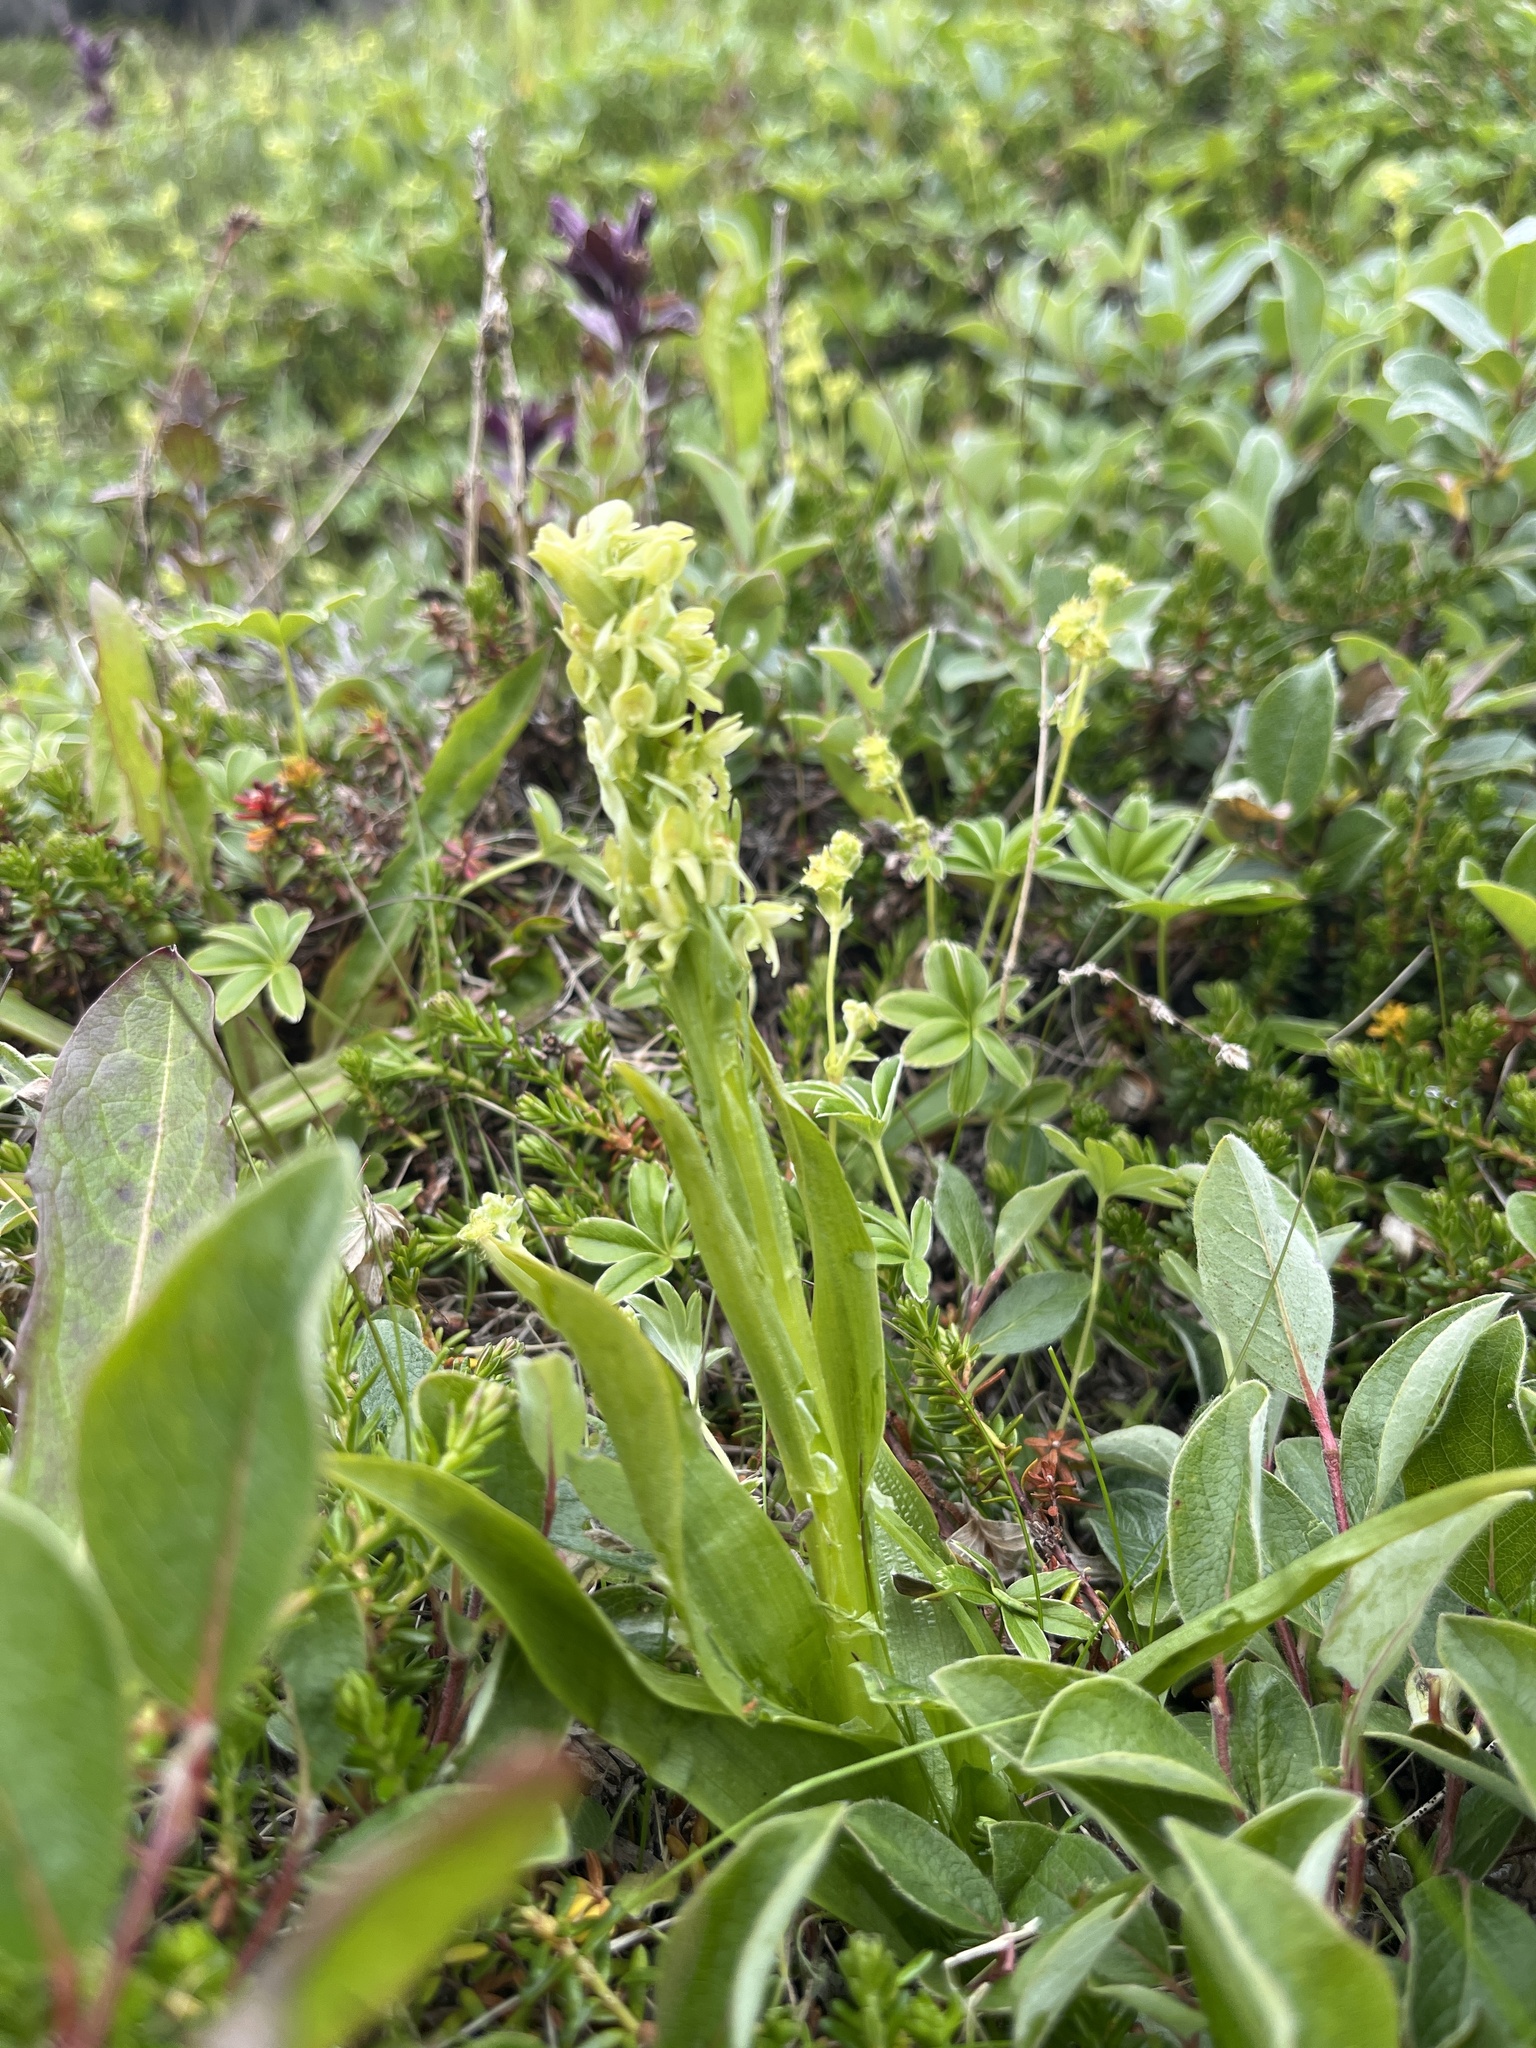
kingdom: Plantae
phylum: Tracheophyta
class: Liliopsida
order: Asparagales
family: Orchidaceae
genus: Platanthera
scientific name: Platanthera hyperborea
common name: Northern green orchid
